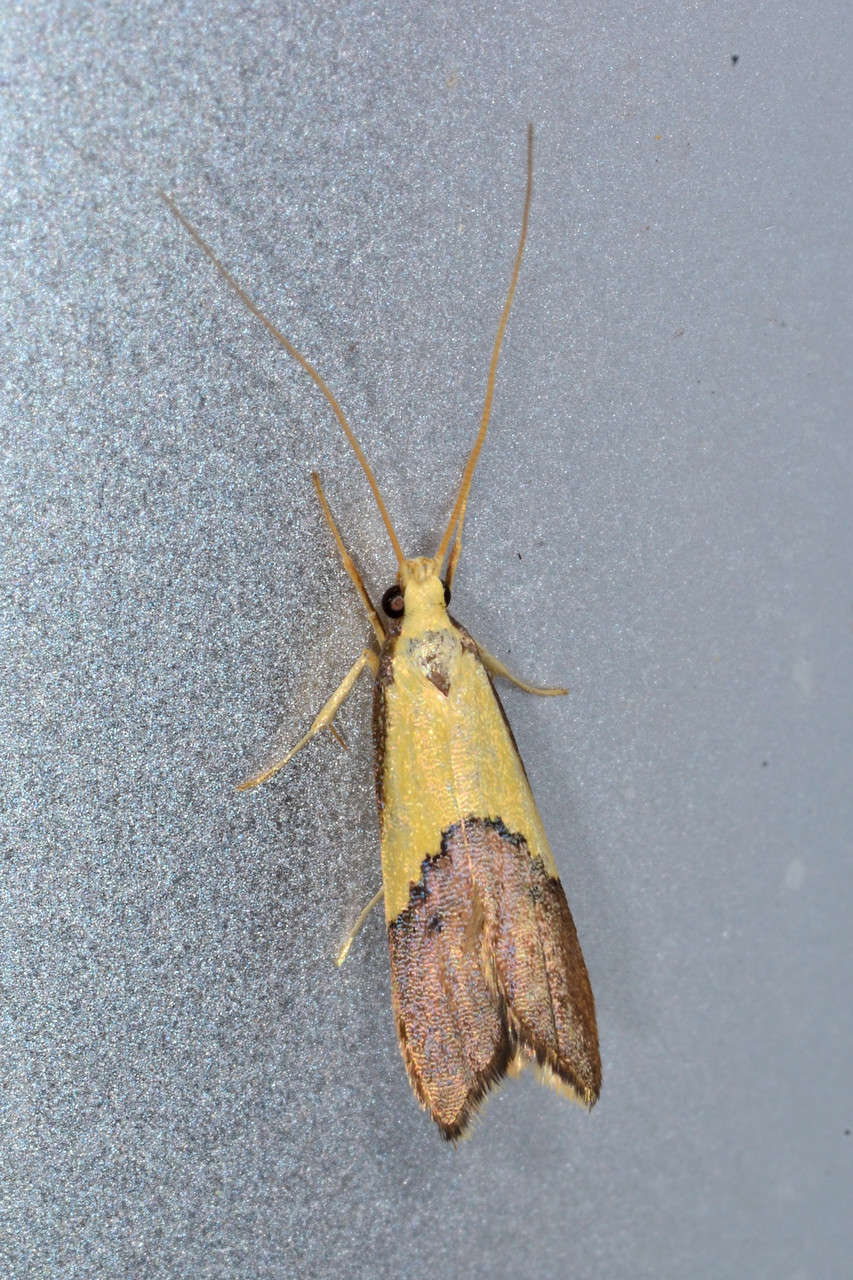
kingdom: Animalia
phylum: Arthropoda
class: Insecta
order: Lepidoptera
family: Lecithoceridae
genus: Crocanthes
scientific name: Crocanthes glycina
